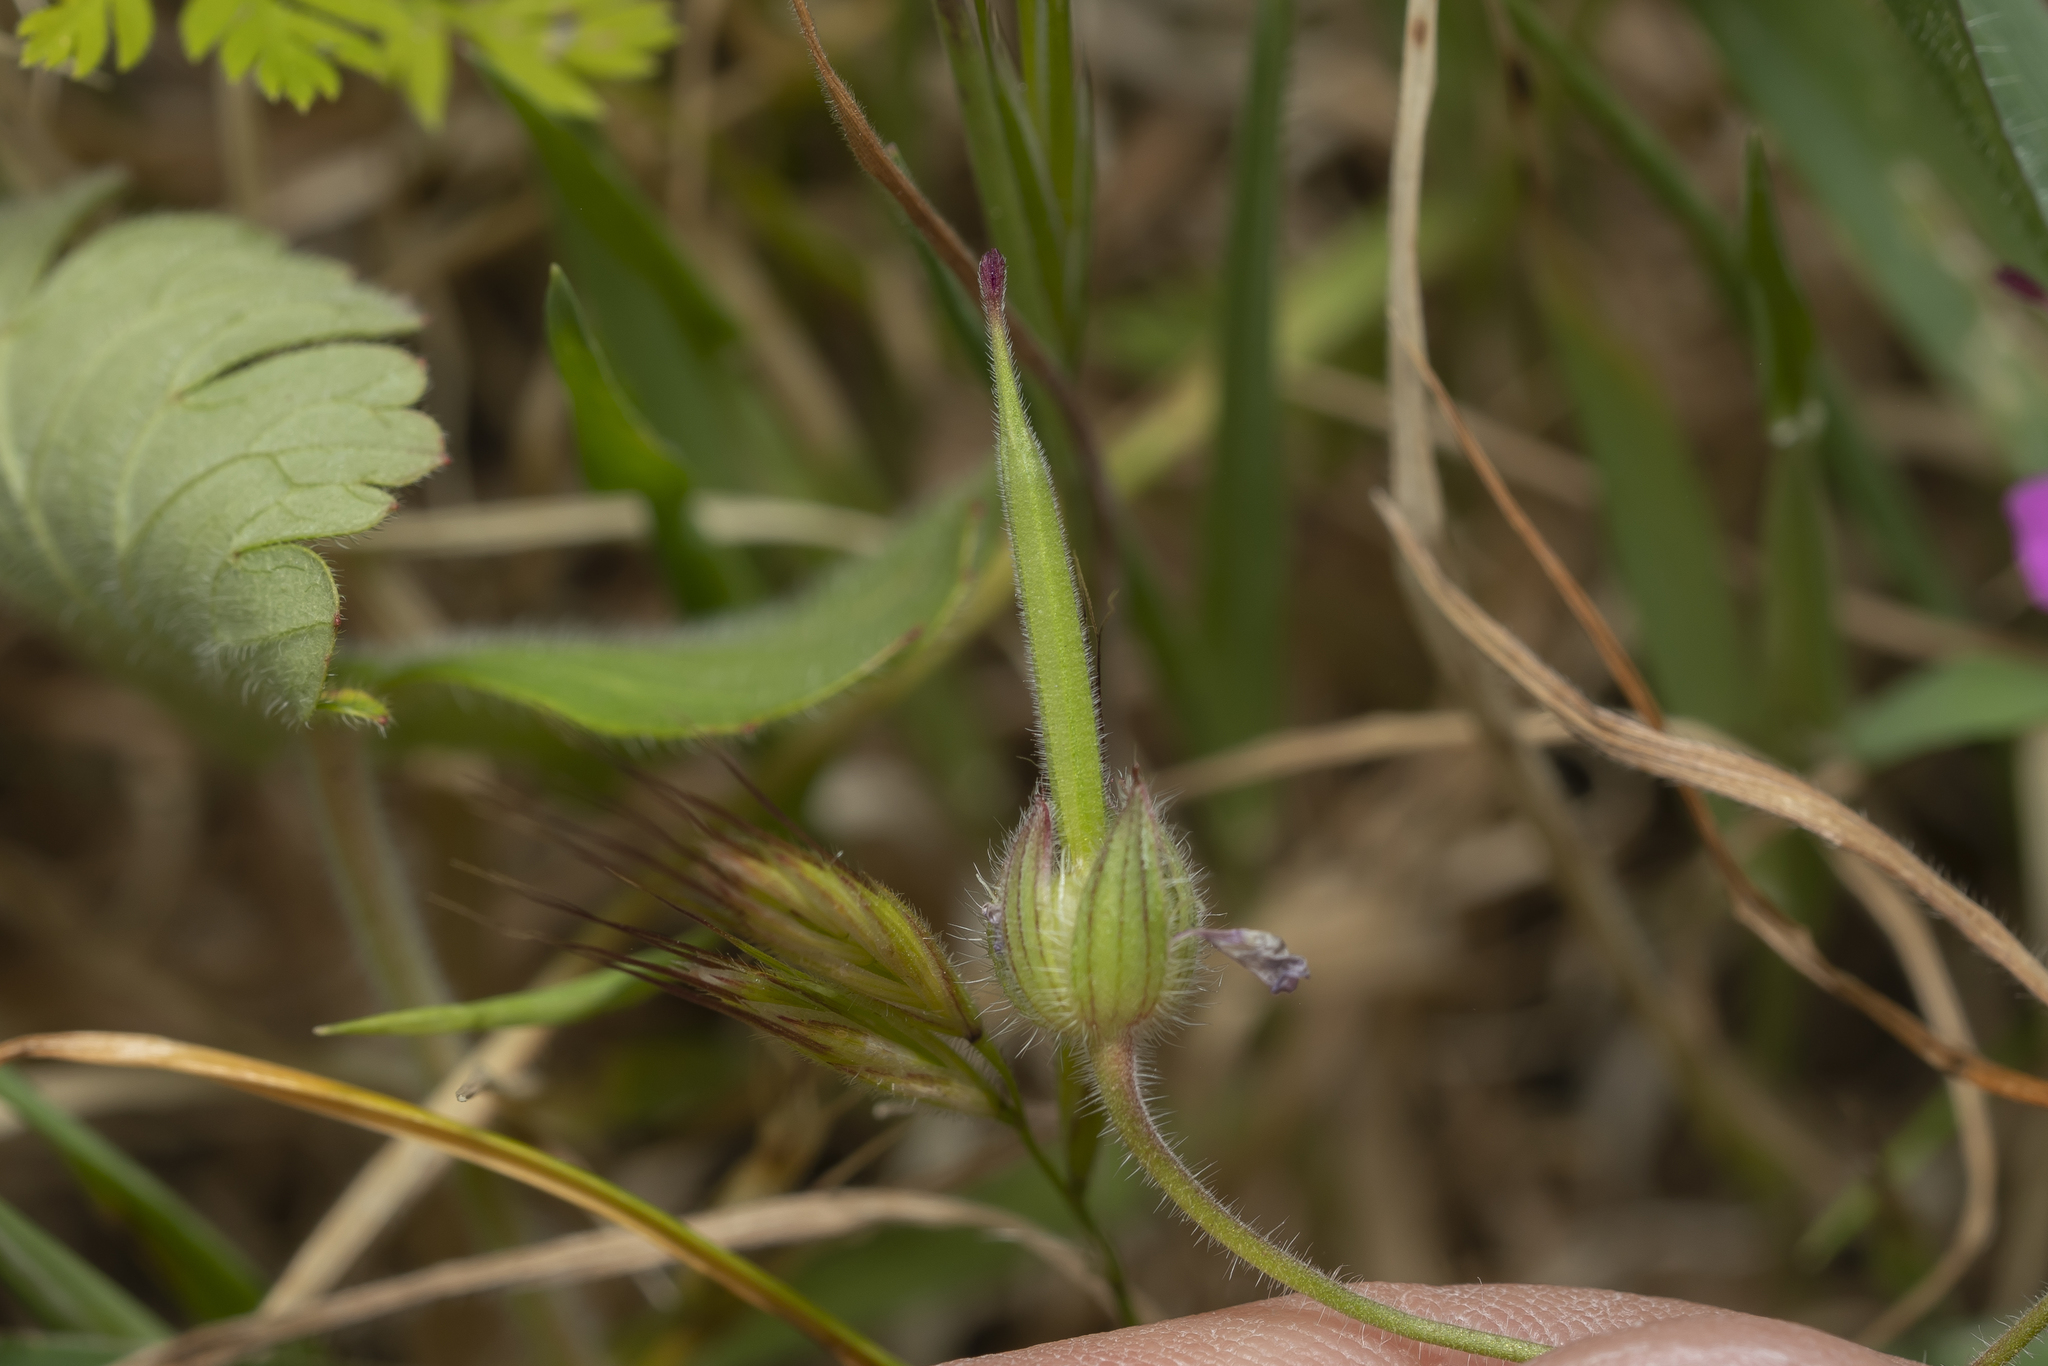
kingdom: Plantae
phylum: Tracheophyta
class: Magnoliopsida
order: Geraniales
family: Geraniaceae
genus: Geranium
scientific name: Geranium rotundifolium
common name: Round-leaved crane's-bill
